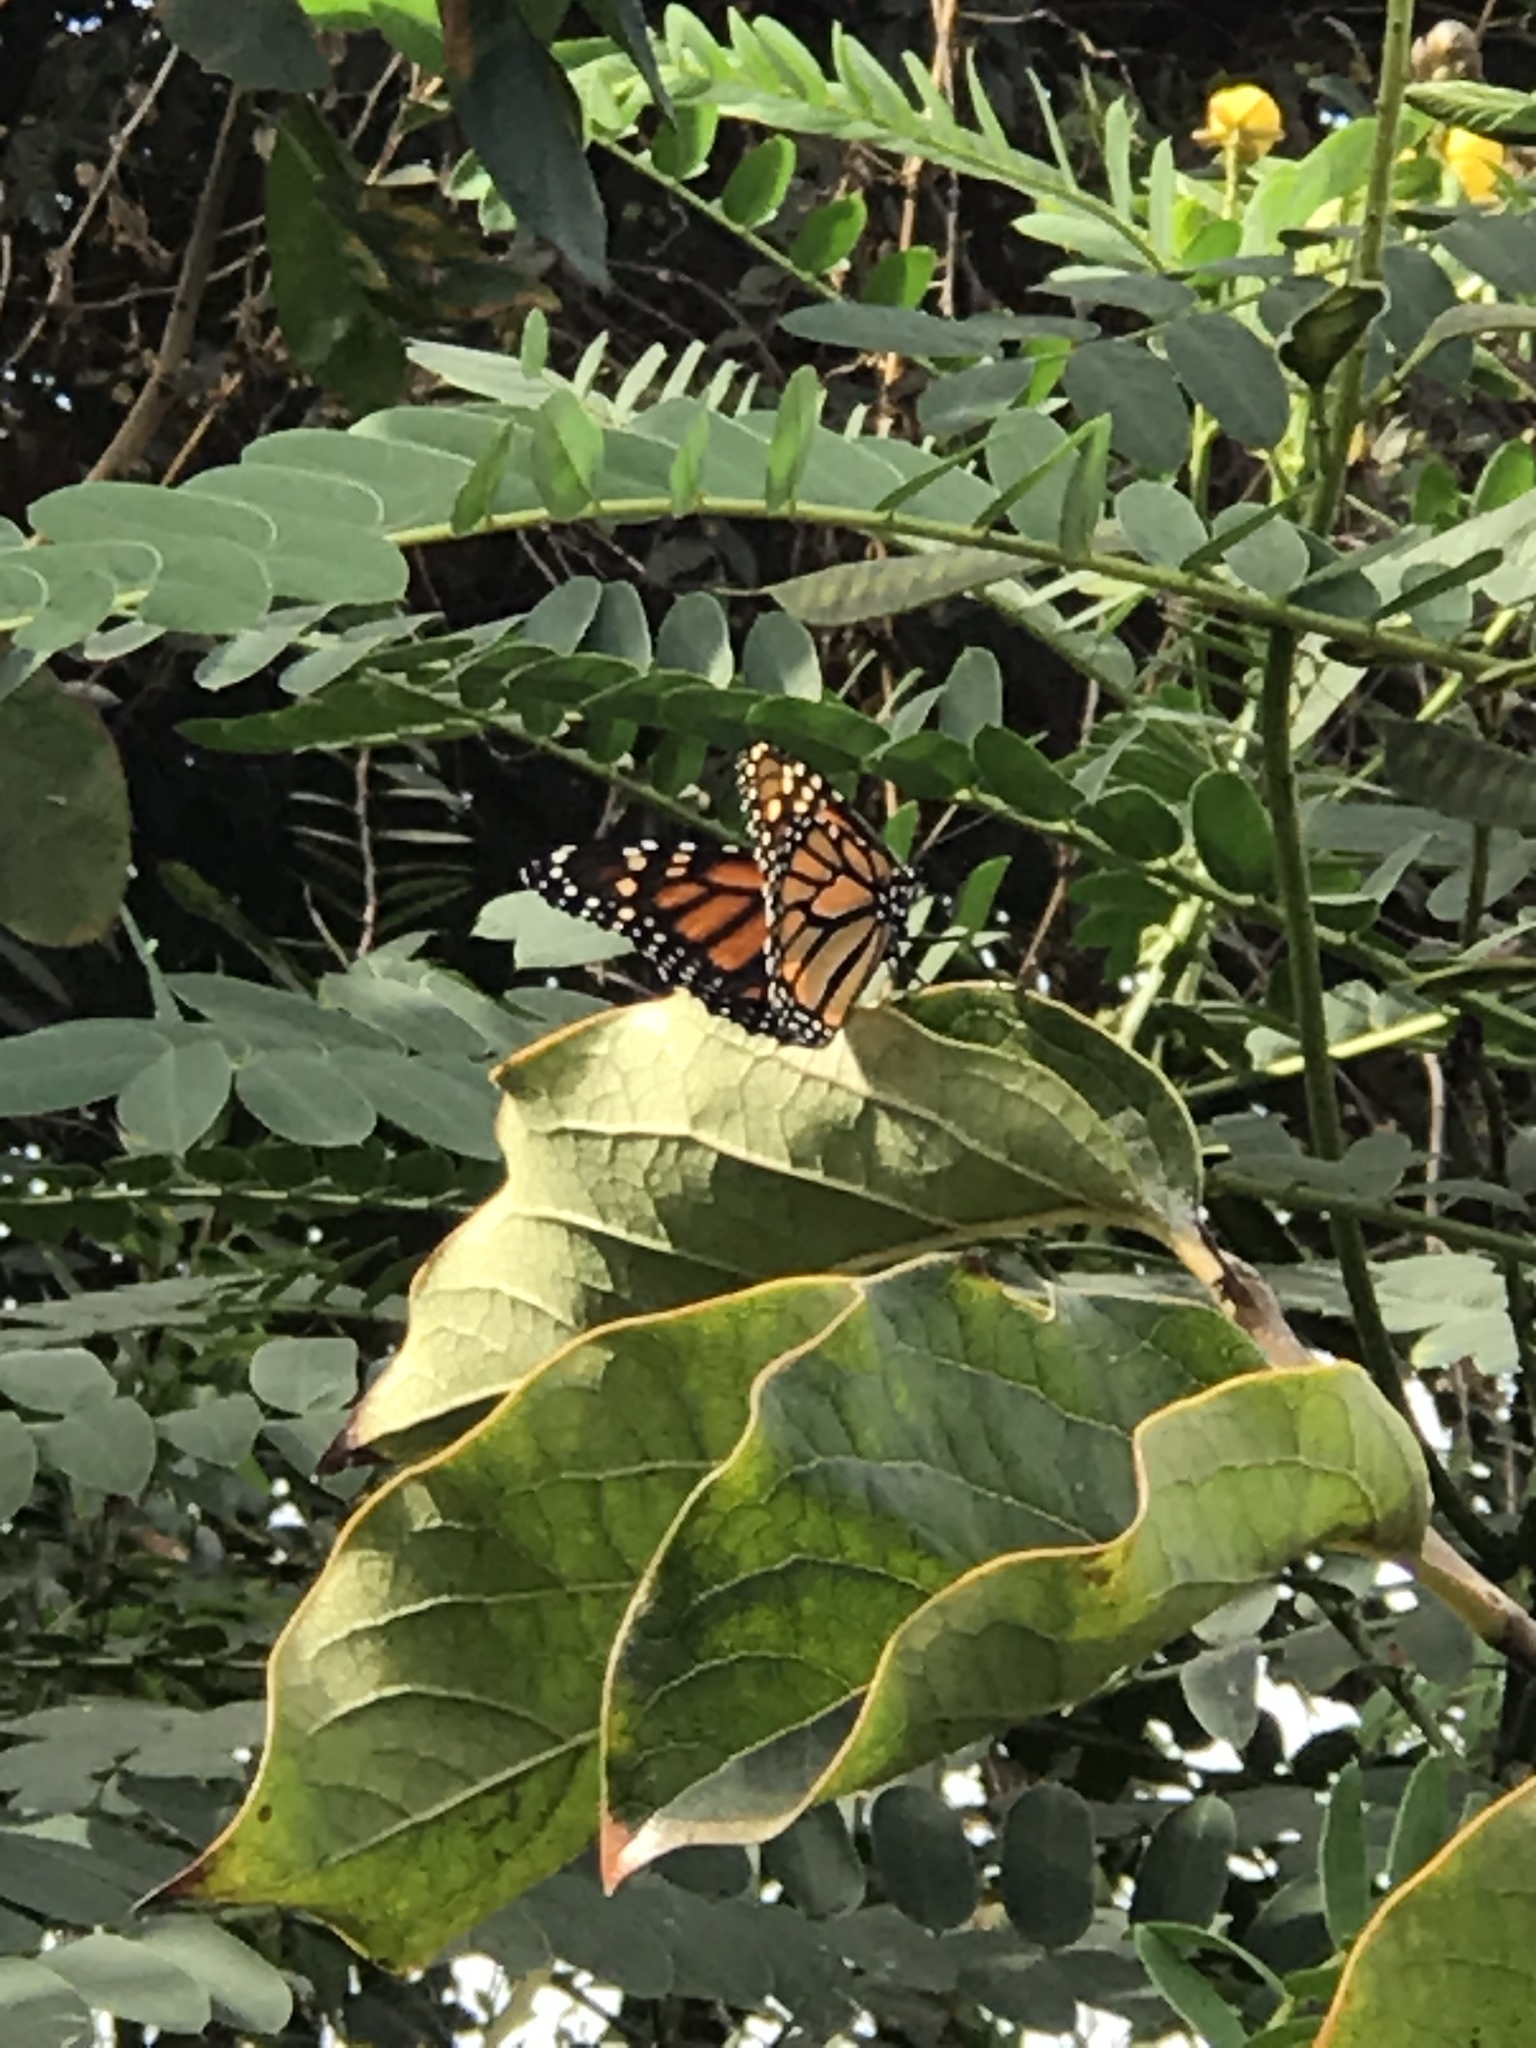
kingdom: Animalia
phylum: Arthropoda
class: Insecta
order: Lepidoptera
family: Nymphalidae
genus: Danaus
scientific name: Danaus plexippus
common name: Monarch
